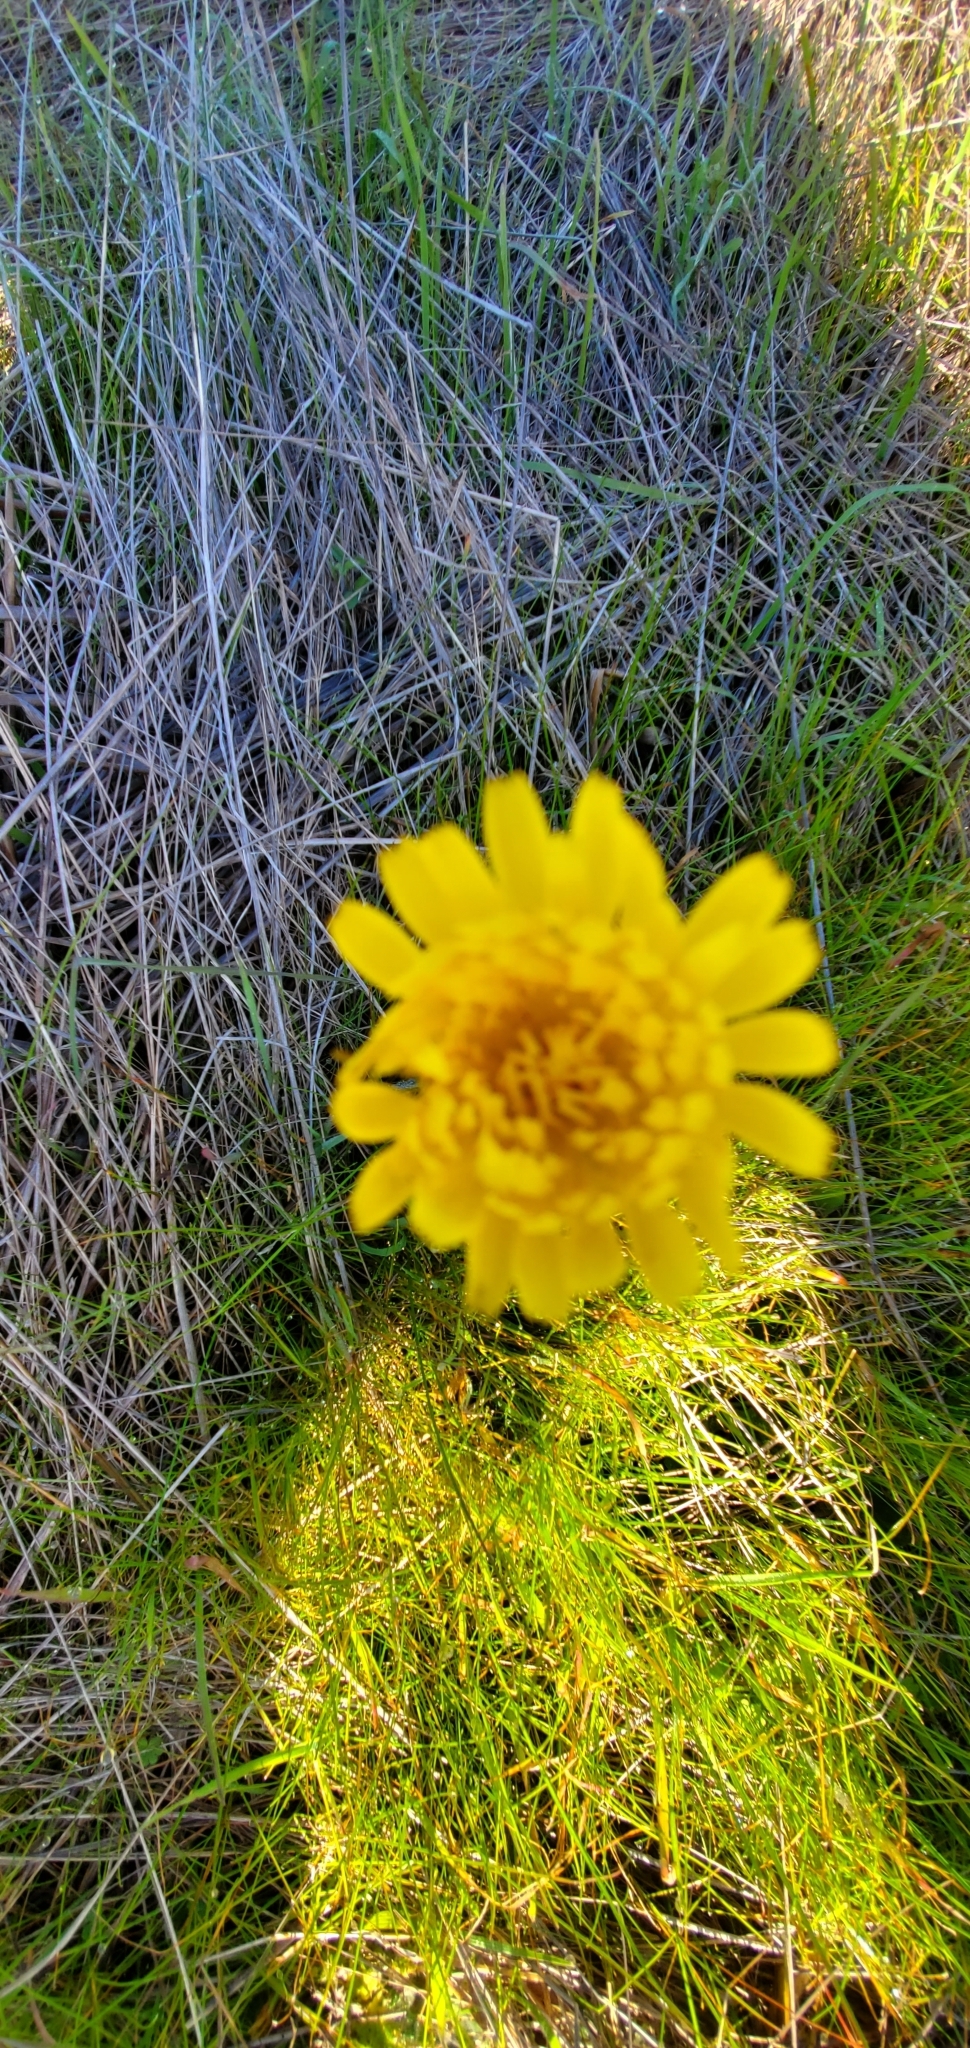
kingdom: Plantae
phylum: Tracheophyta
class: Magnoliopsida
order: Asterales
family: Asteraceae
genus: Hypochaeris
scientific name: Hypochaeris radicata
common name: Flatweed
